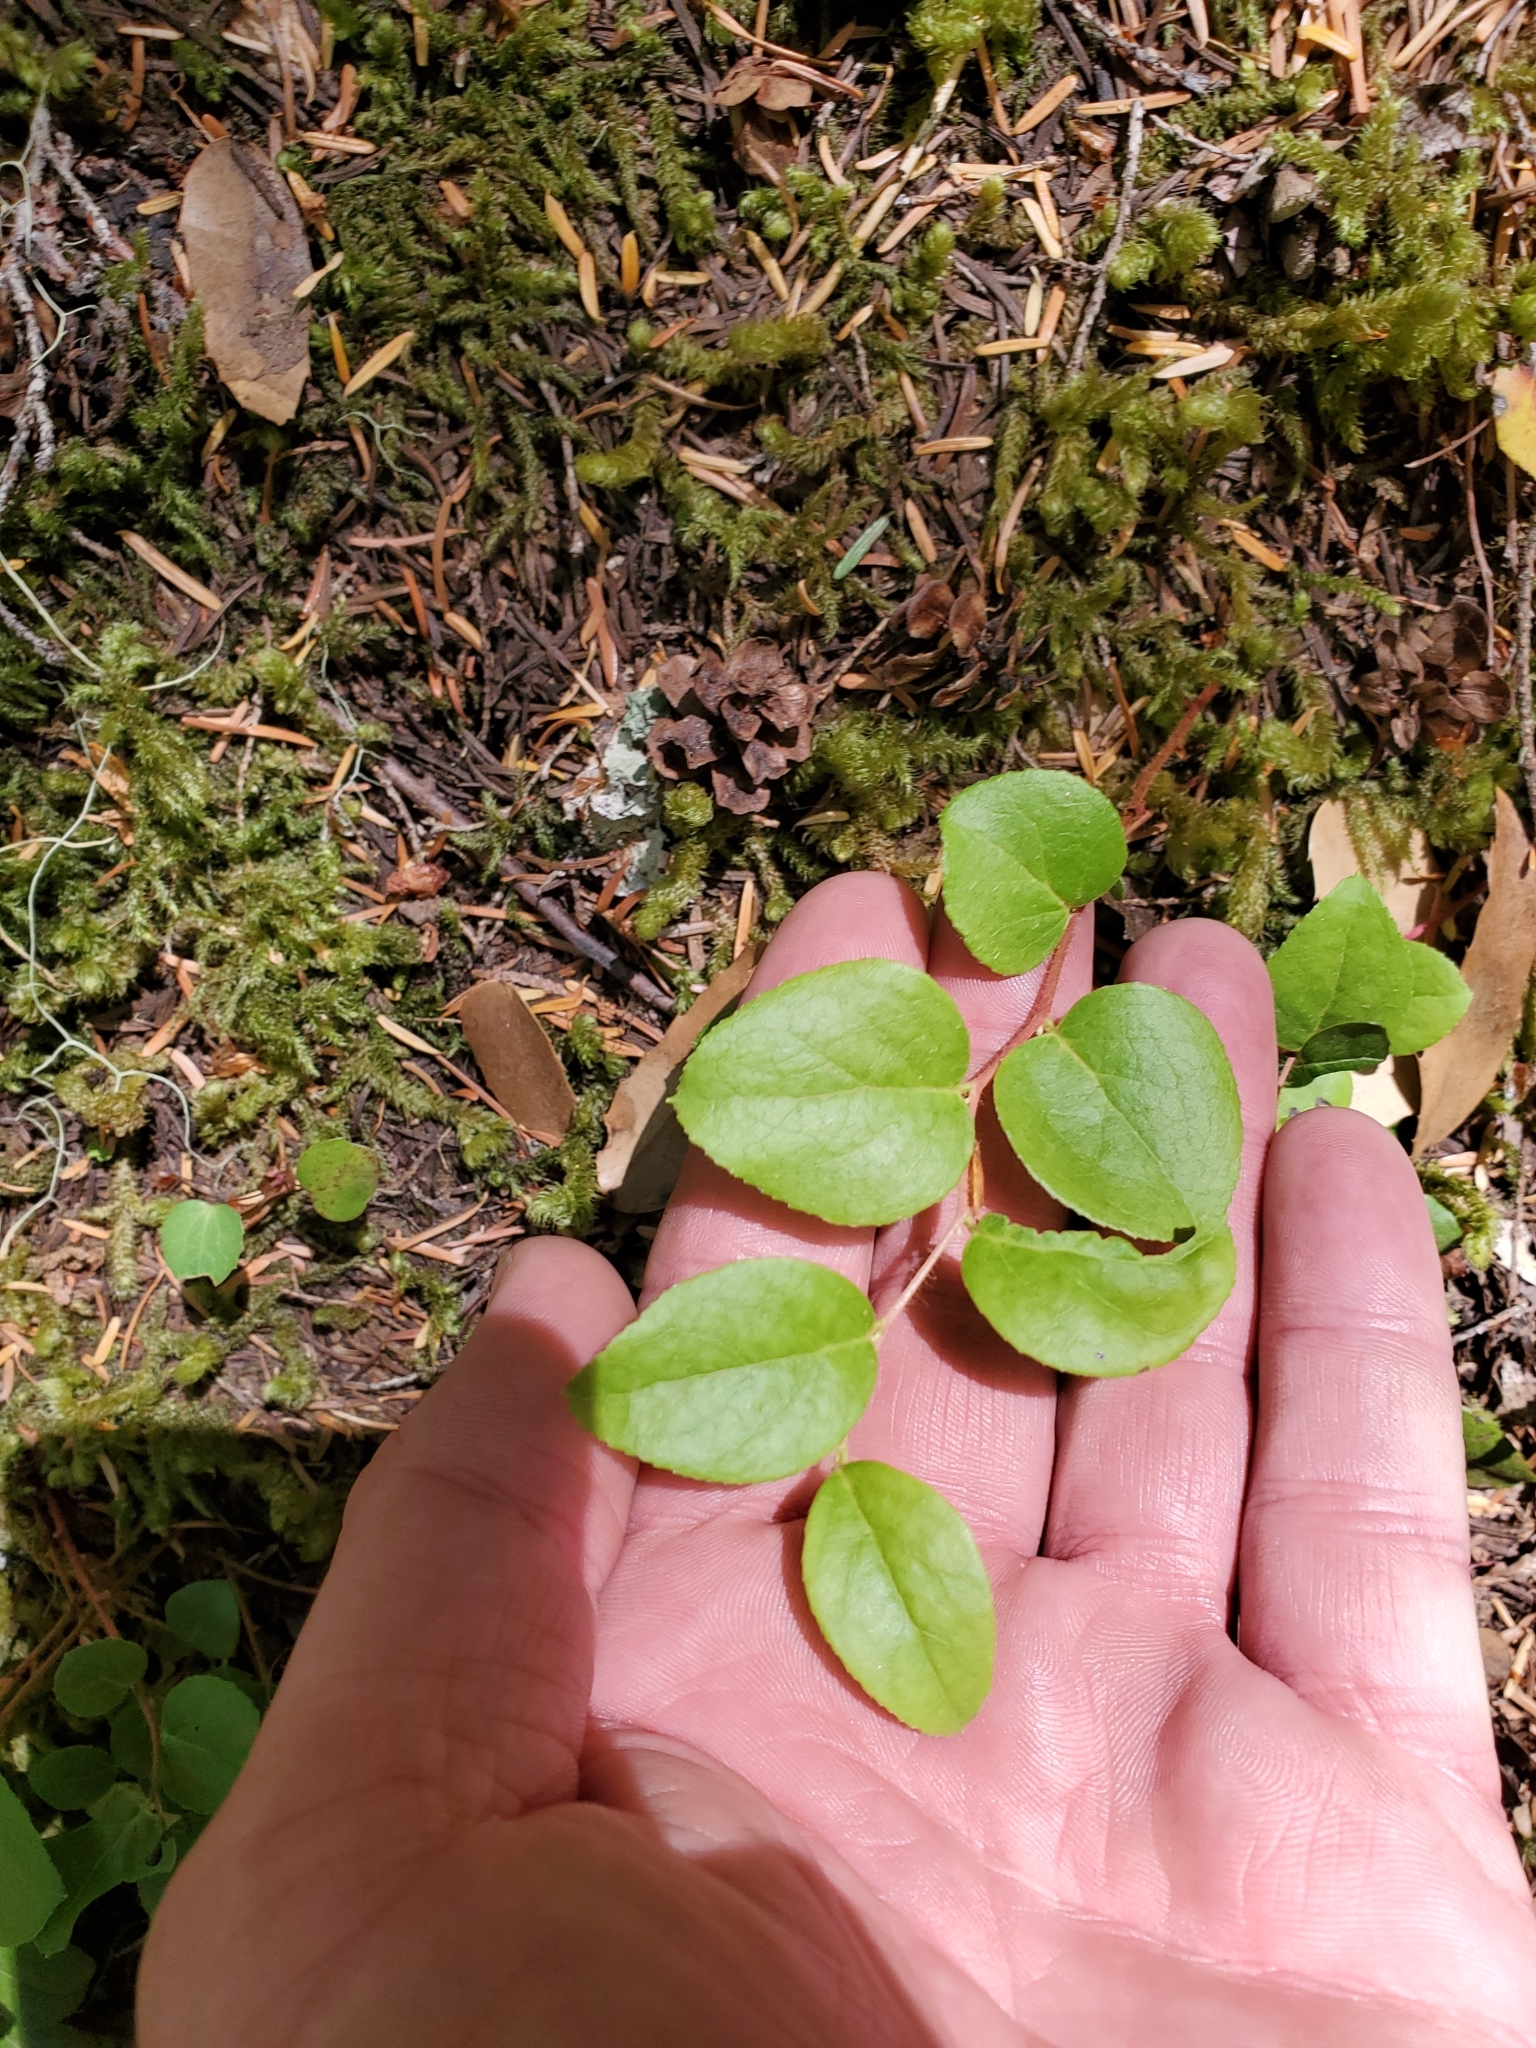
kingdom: Plantae
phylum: Tracheophyta
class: Magnoliopsida
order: Ericales
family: Ericaceae
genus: Gaultheria
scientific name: Gaultheria ovatifolia
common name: Oregon wintergreen
